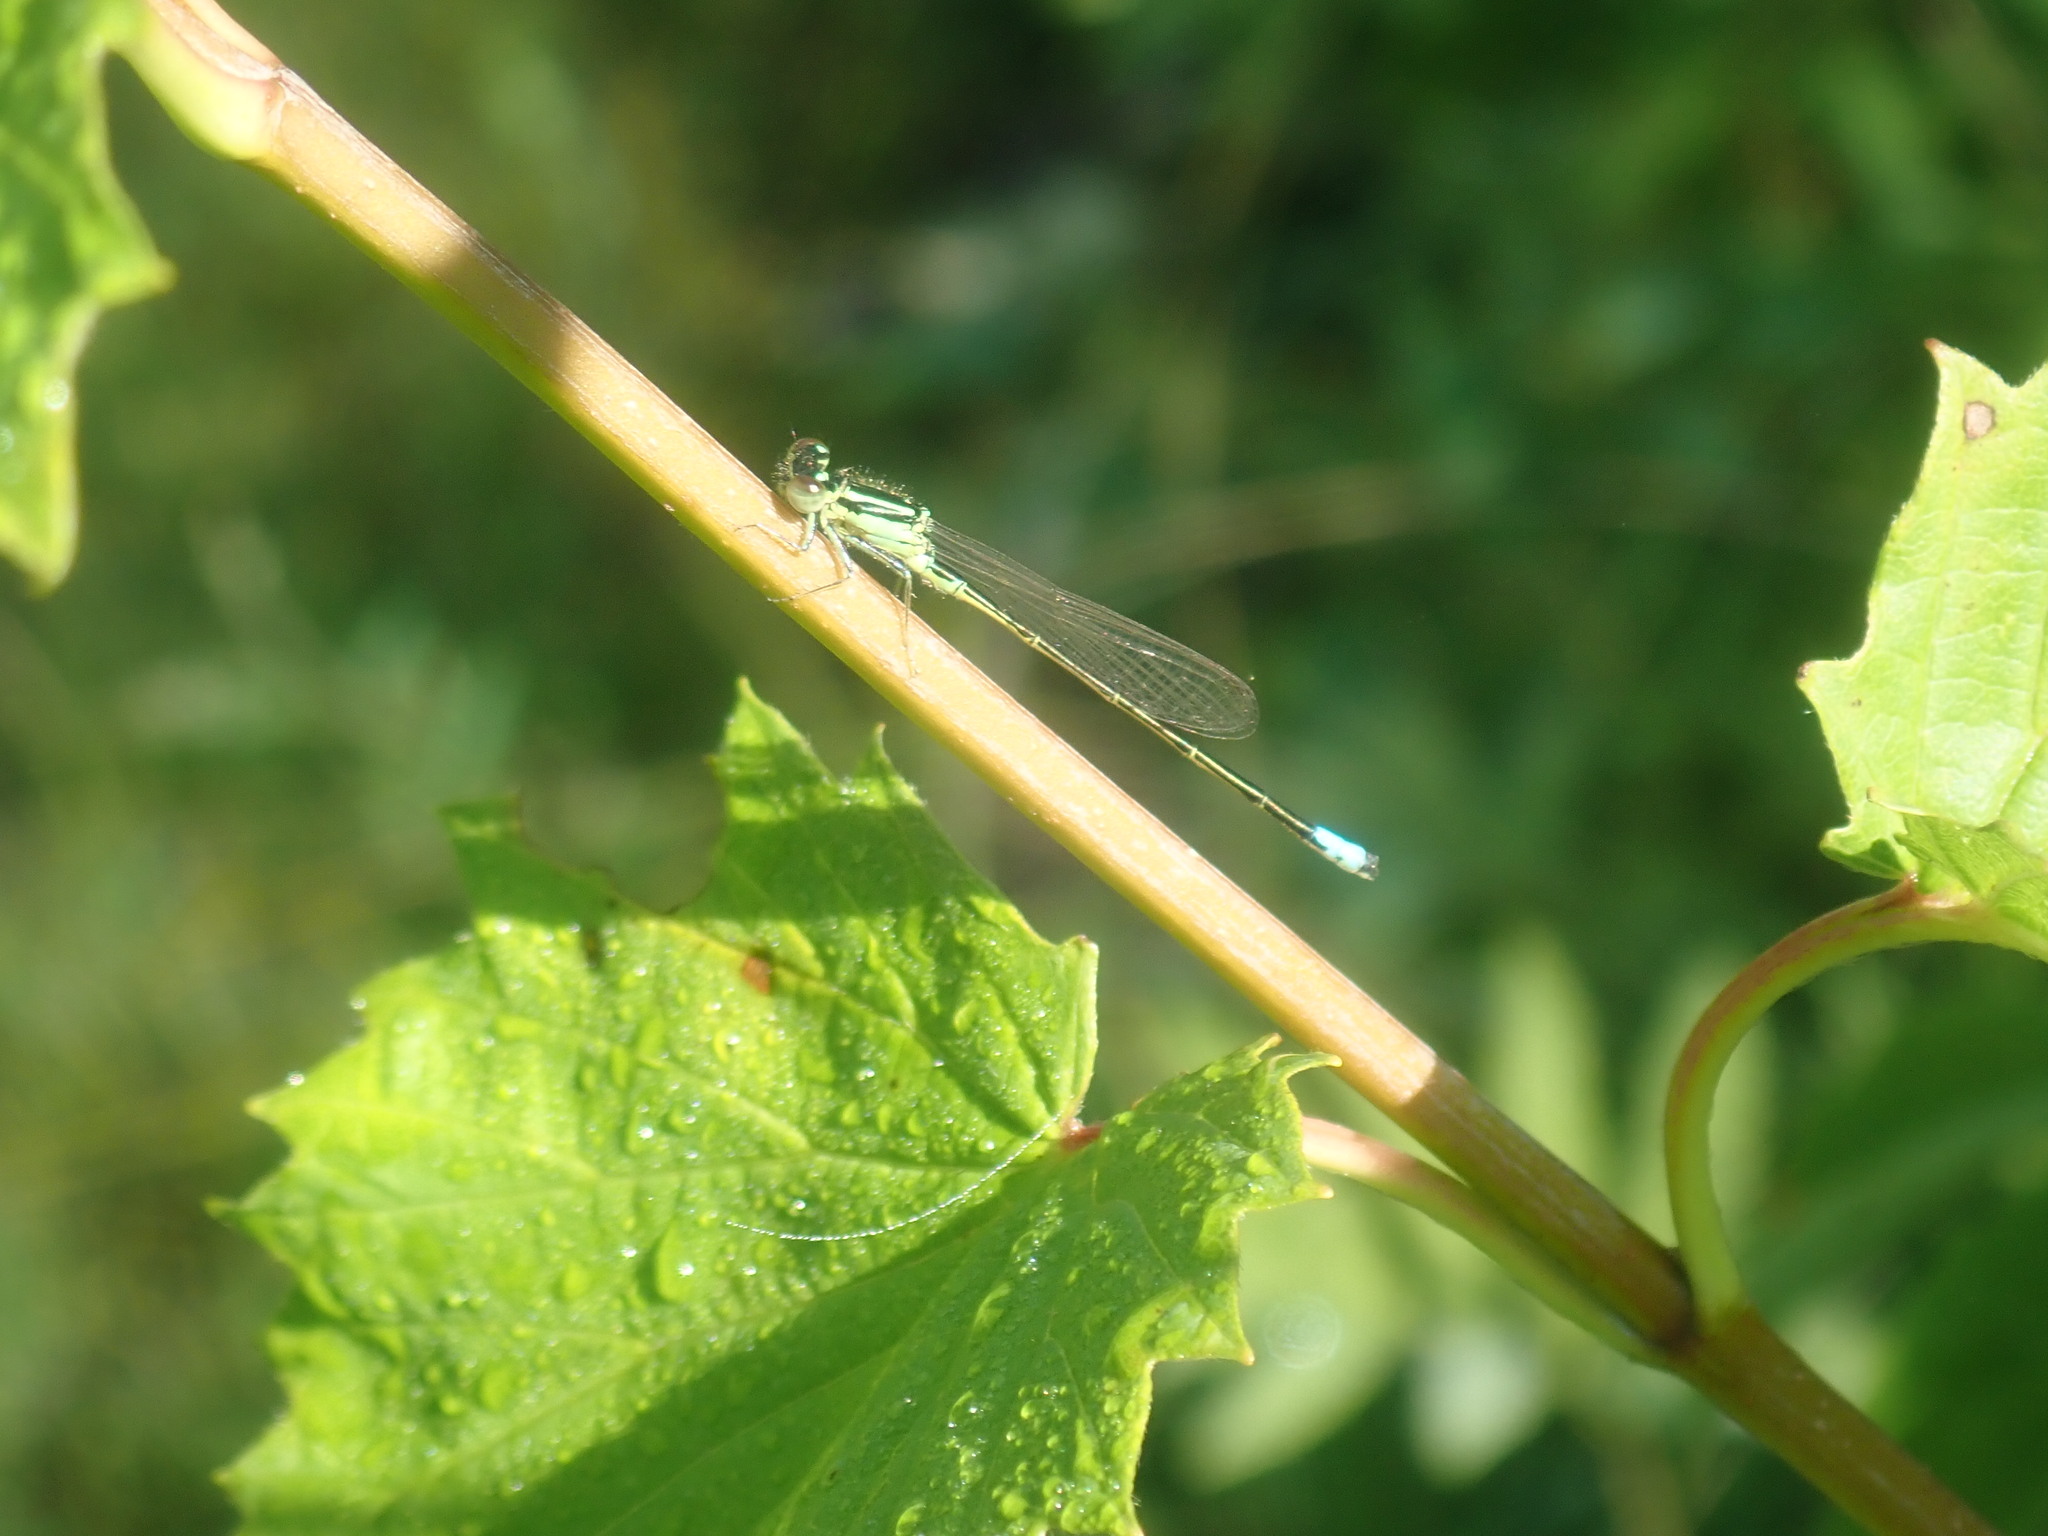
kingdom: Animalia
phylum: Arthropoda
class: Insecta
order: Odonata
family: Coenagrionidae
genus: Ischnura
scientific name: Ischnura verticalis
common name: Eastern forktail
